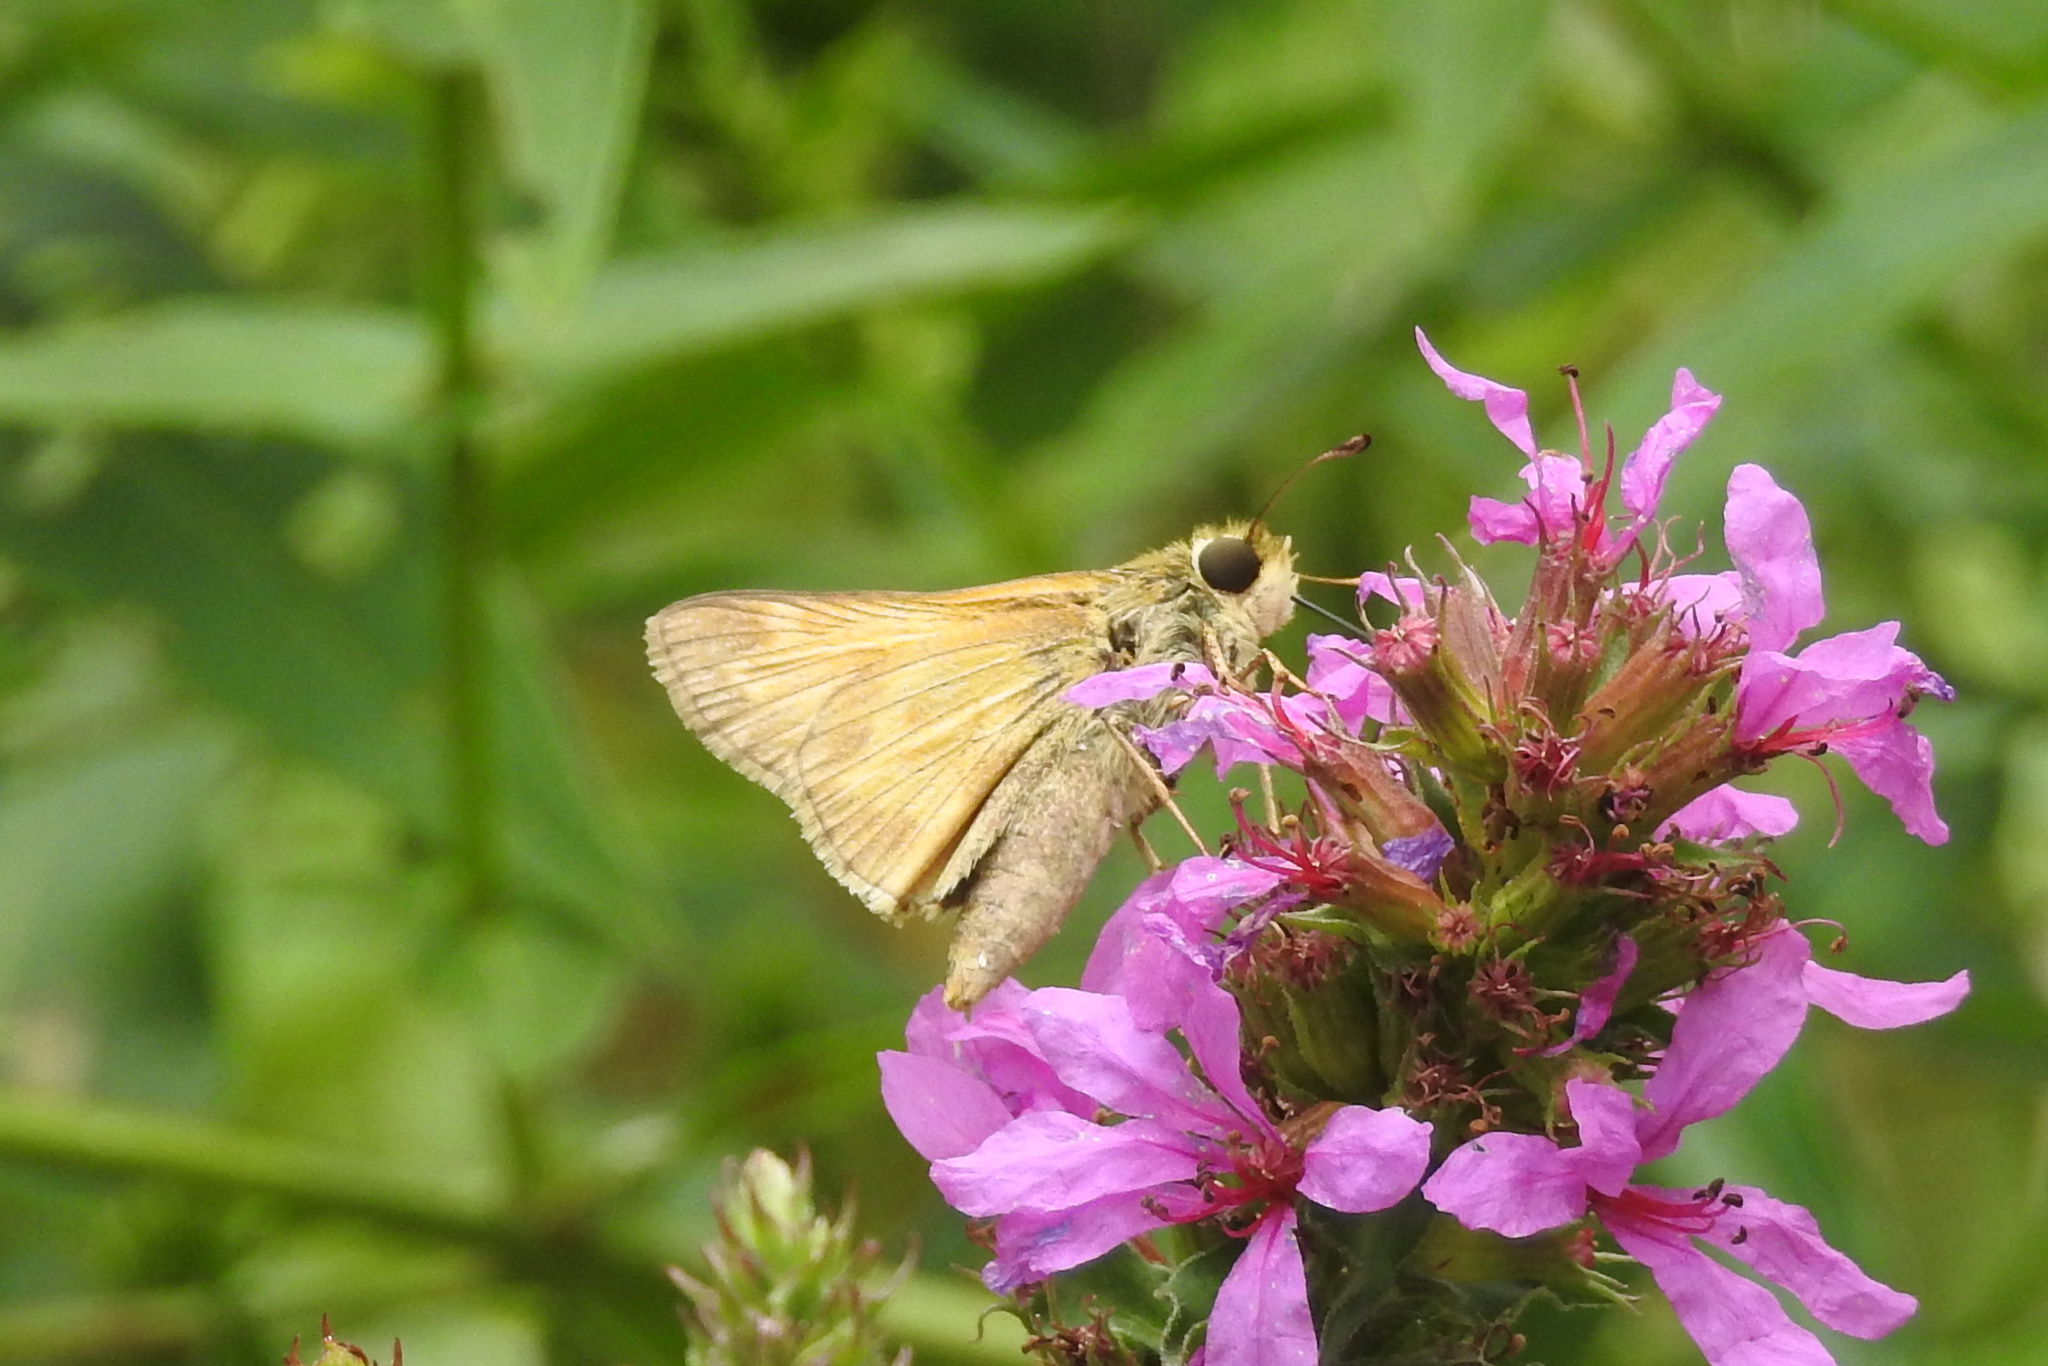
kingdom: Animalia
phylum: Arthropoda
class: Insecta
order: Lepidoptera
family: Hesperiidae
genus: Atalopedes
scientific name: Atalopedes
